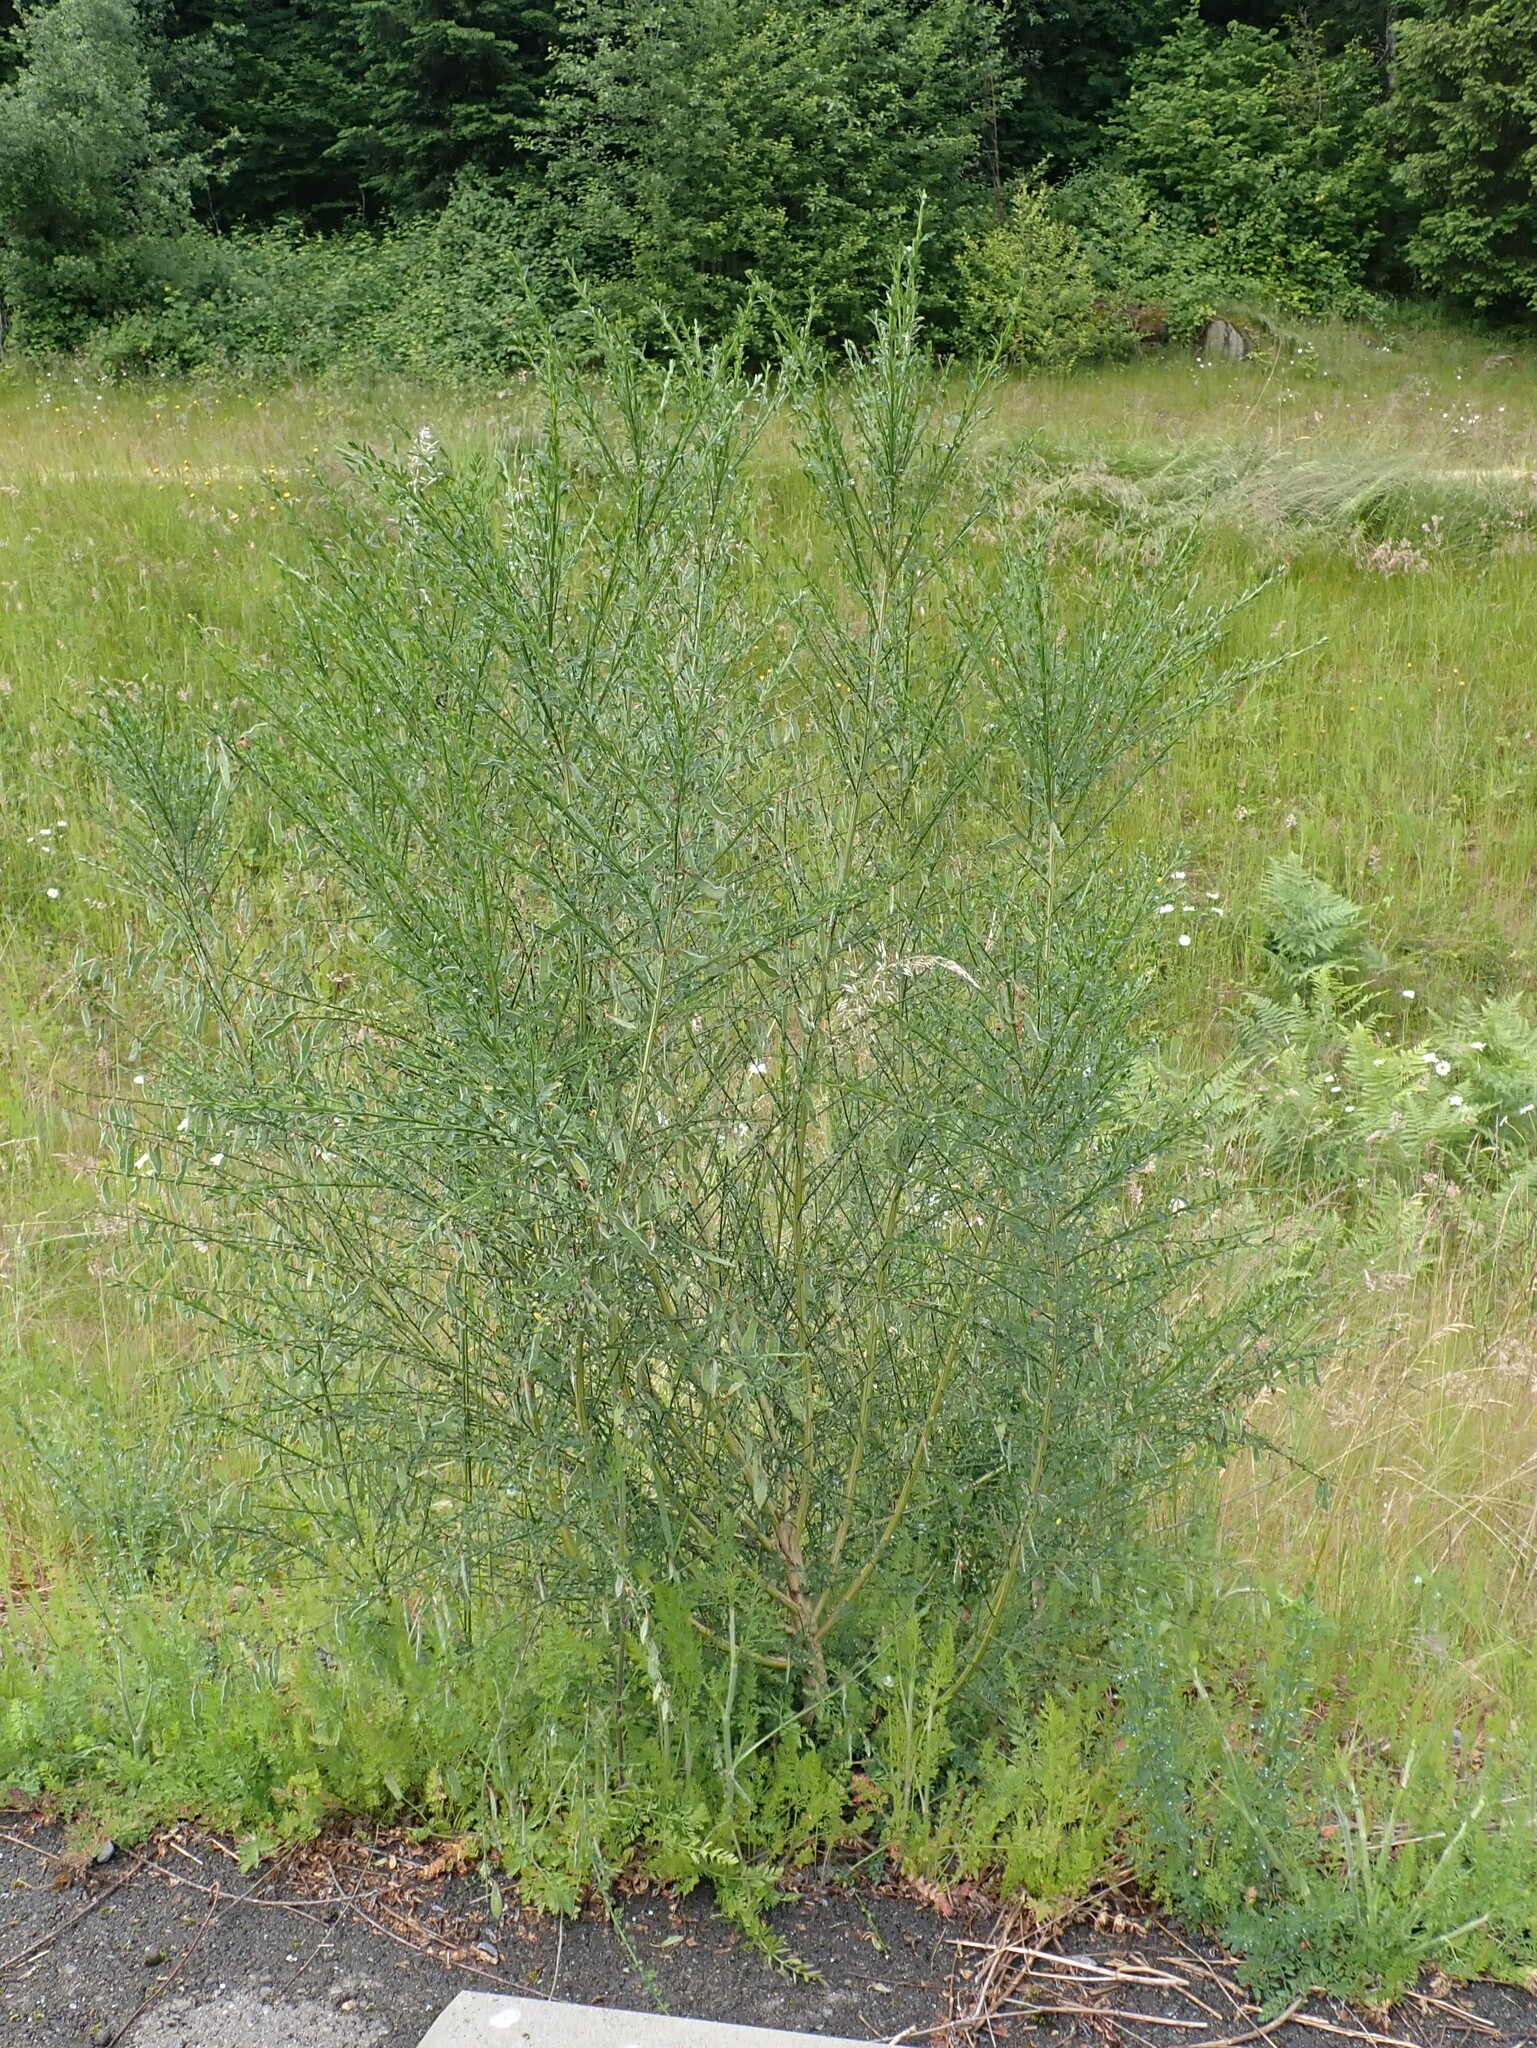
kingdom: Plantae
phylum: Tracheophyta
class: Magnoliopsida
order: Fabales
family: Fabaceae
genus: Cytisus
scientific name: Cytisus scoparius
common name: Scotch broom
